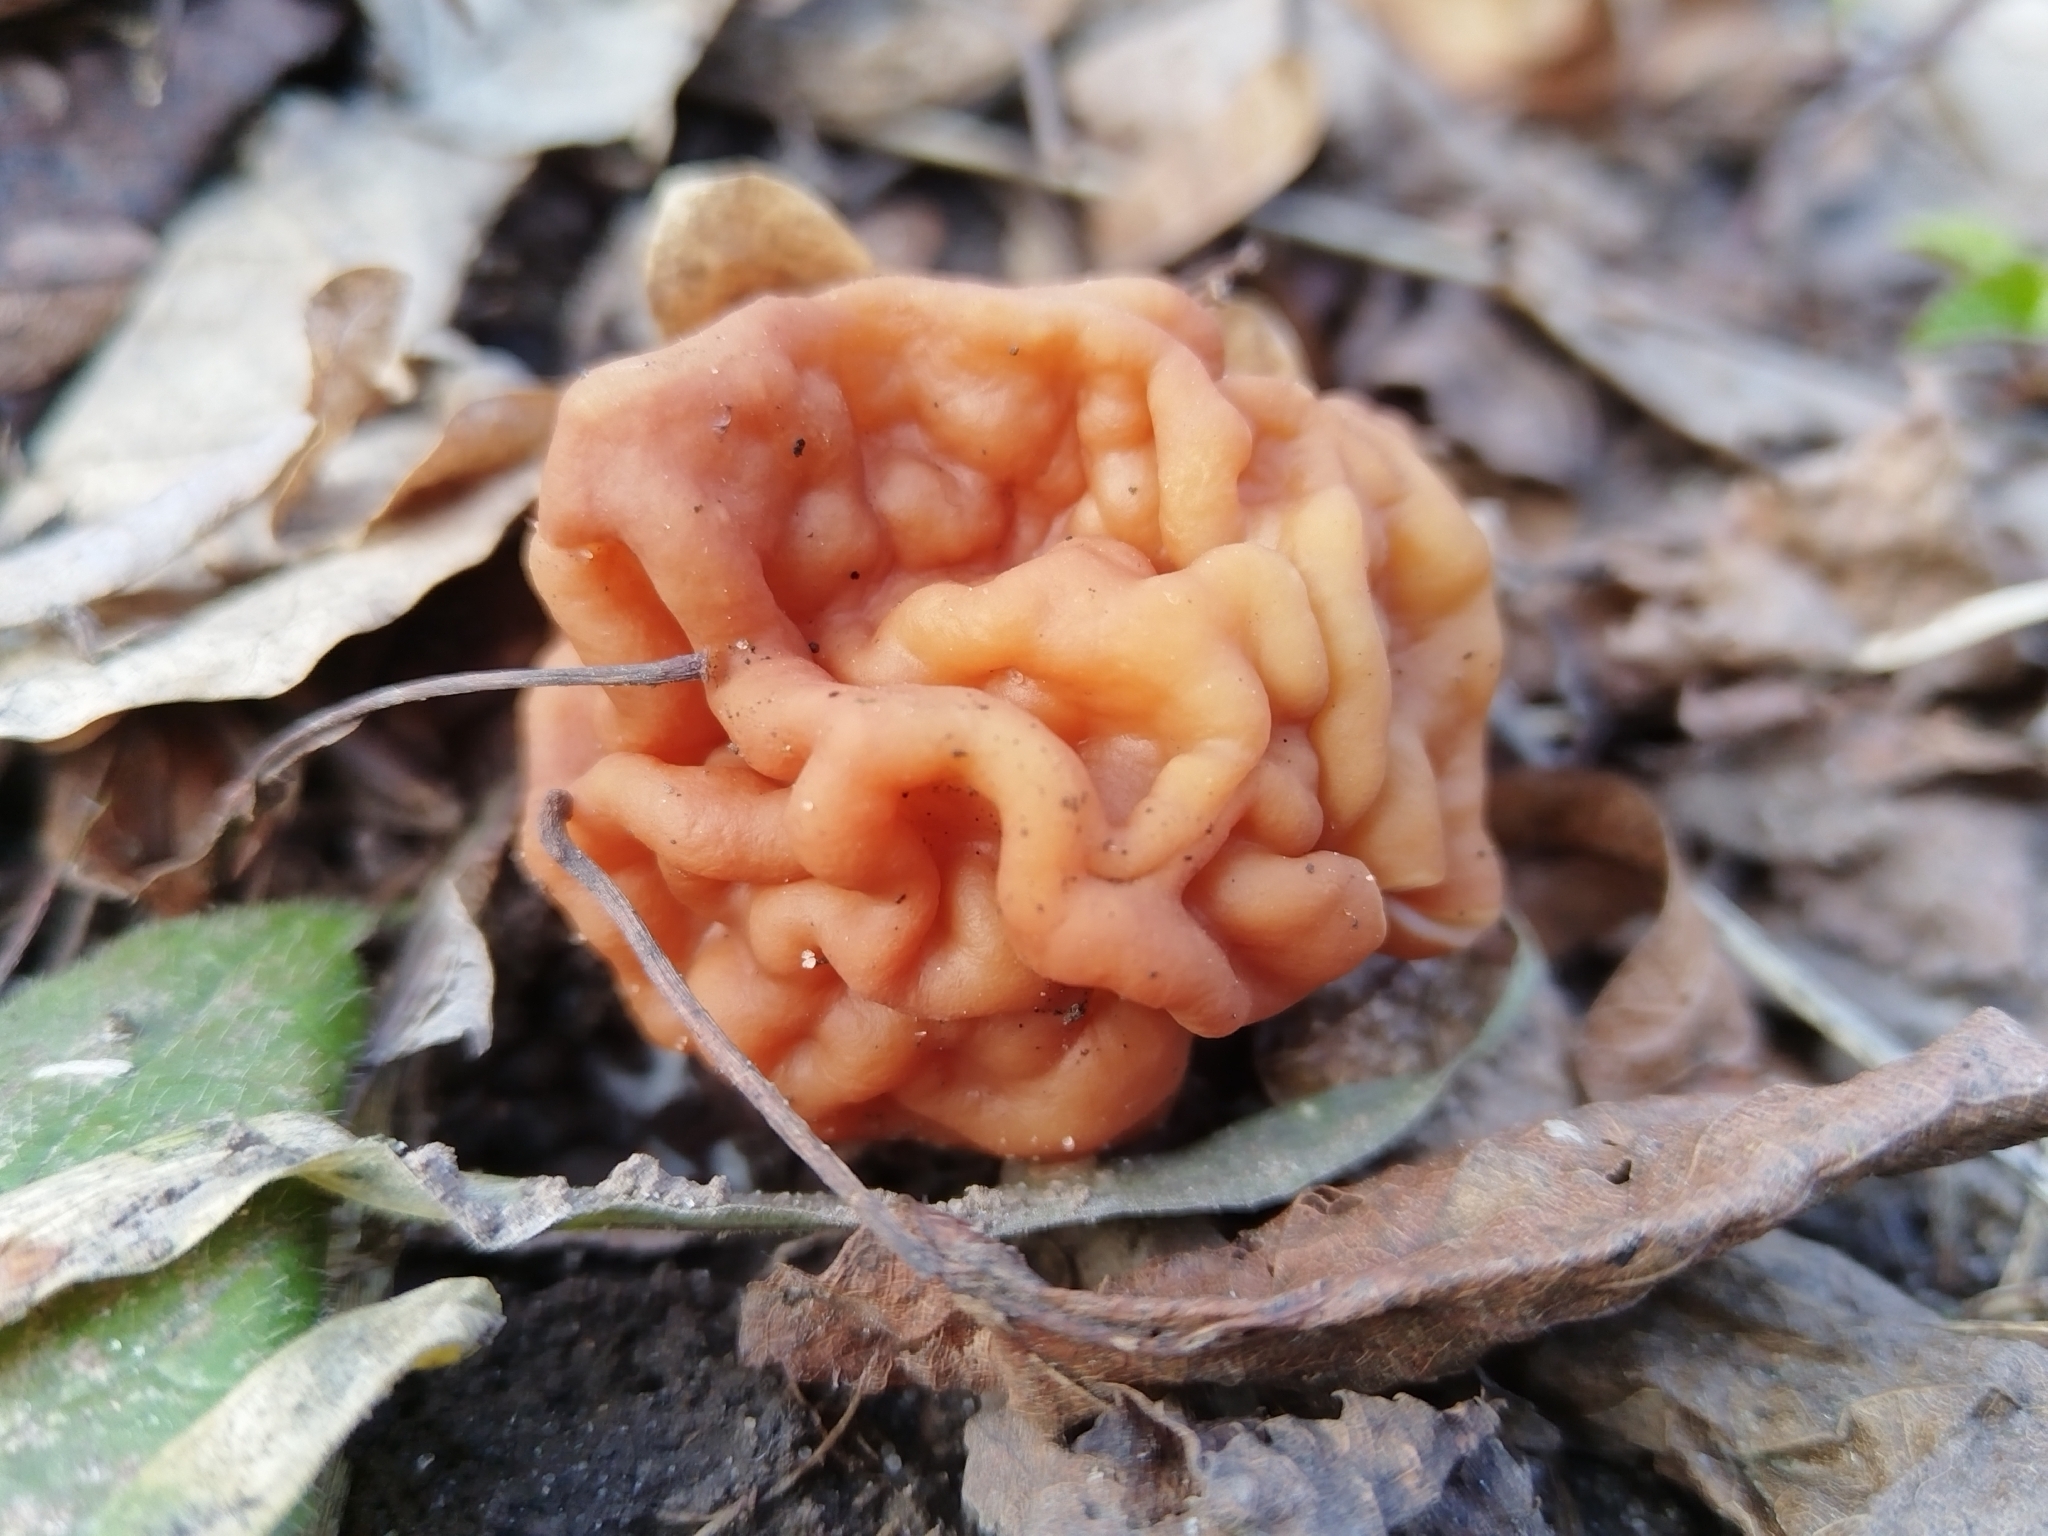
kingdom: Fungi
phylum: Ascomycota
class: Pezizomycetes
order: Pezizales
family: Discinaceae
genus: Gyromitra
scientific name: Gyromitra gigas
